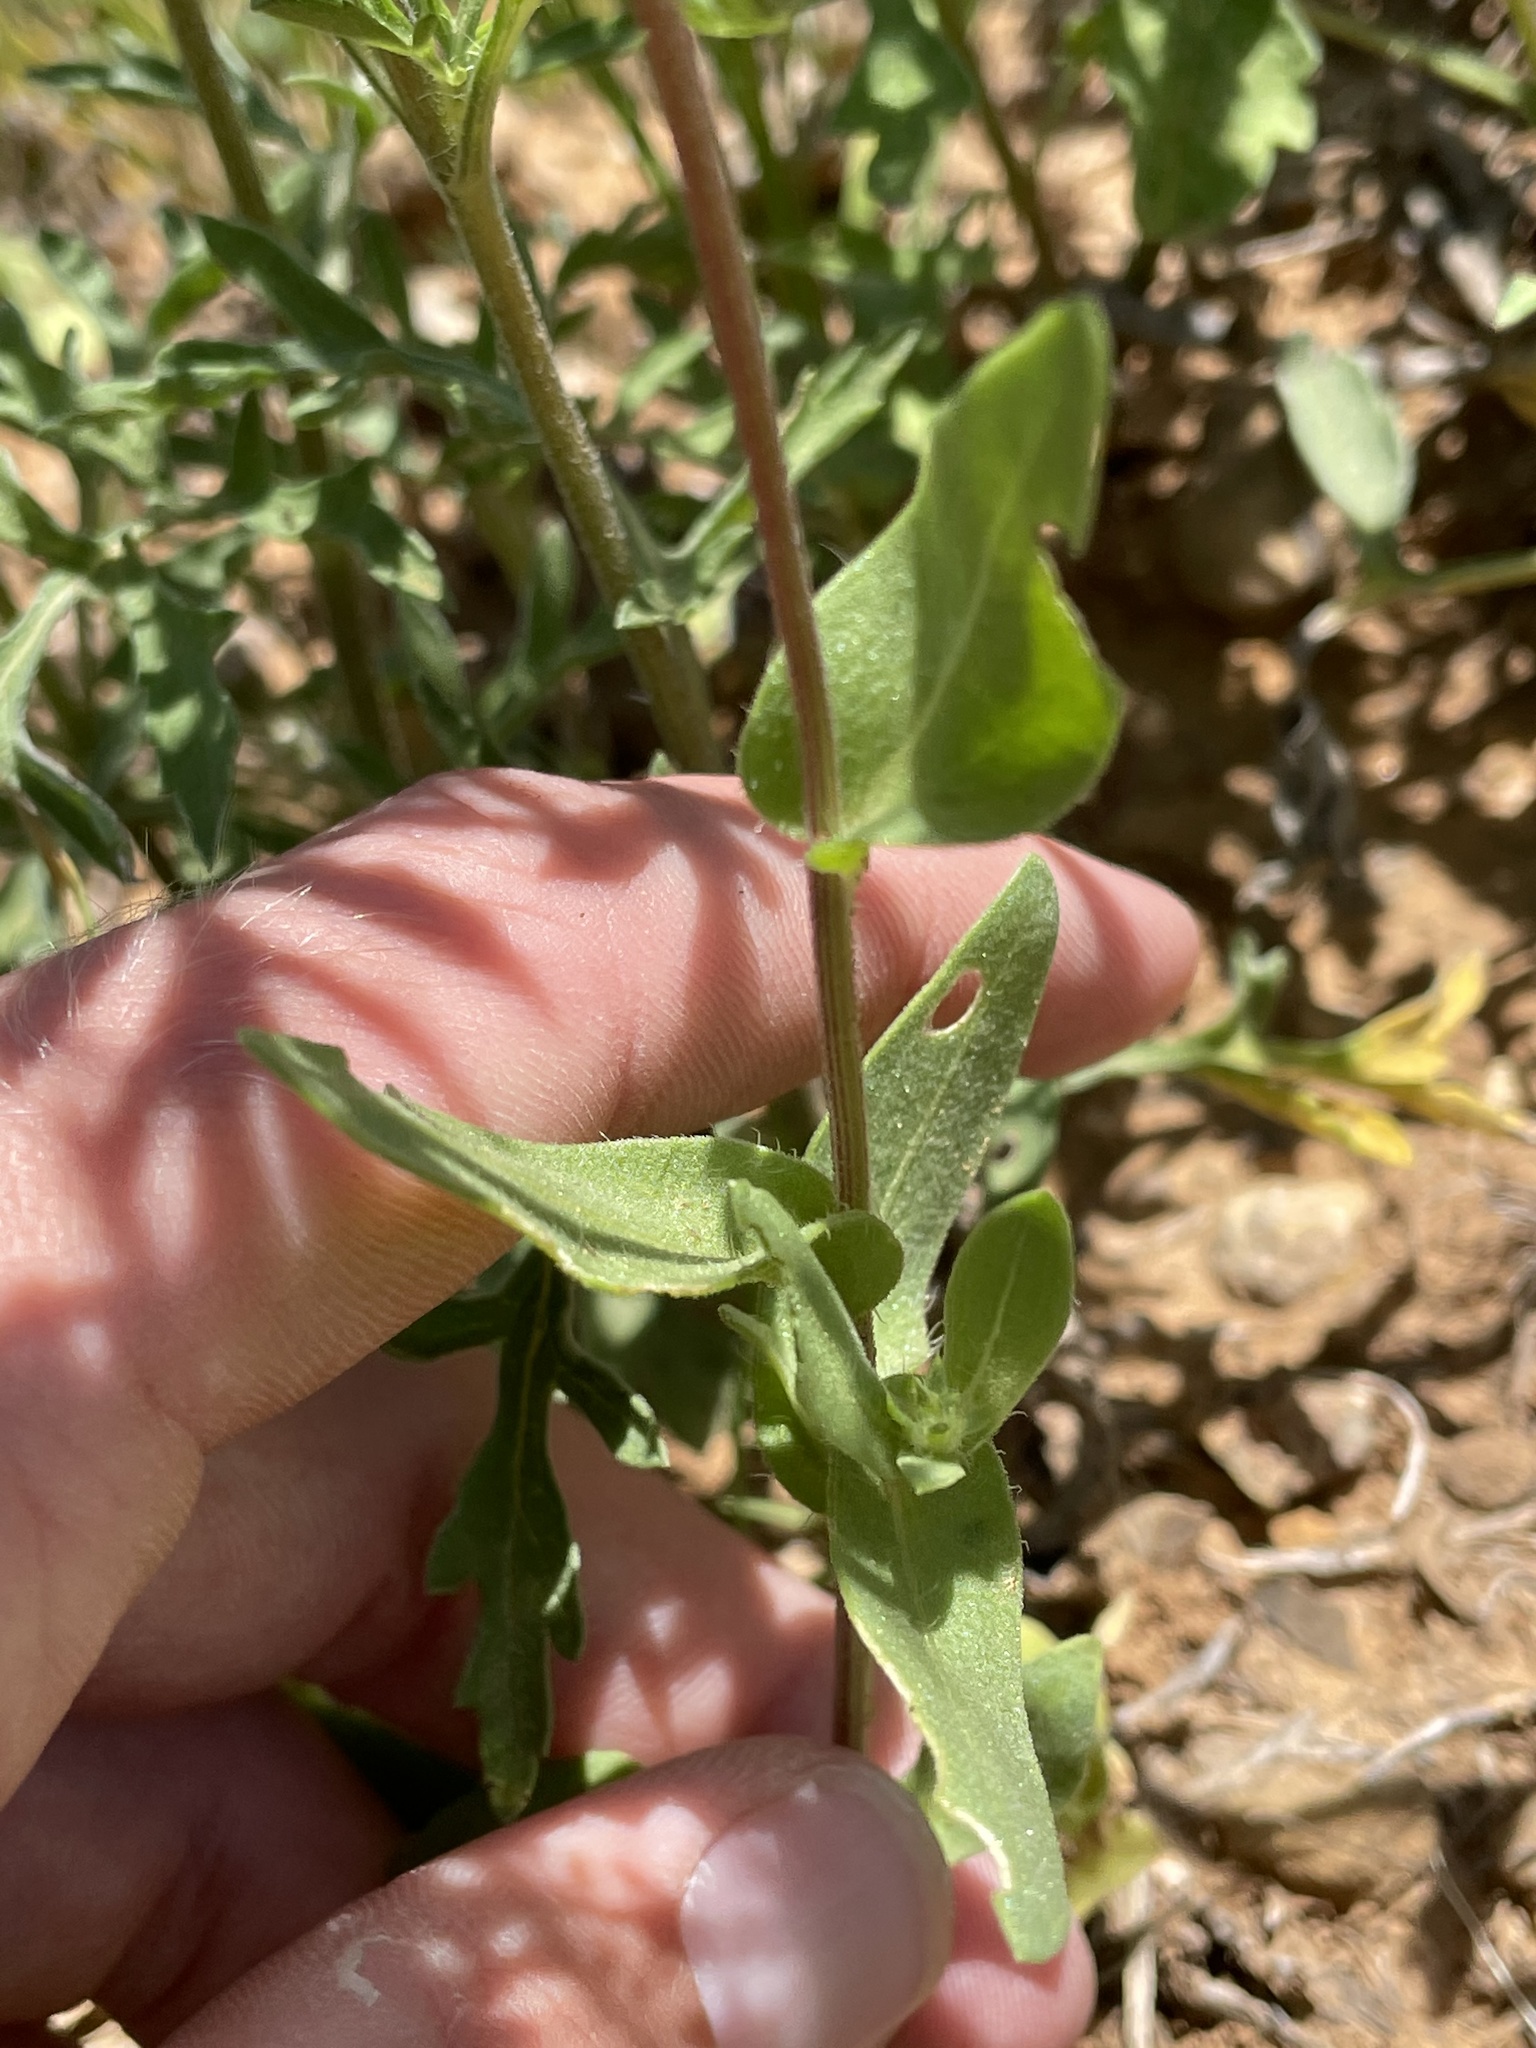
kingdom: Plantae
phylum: Tracheophyta
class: Magnoliopsida
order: Asterales
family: Asteraceae
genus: Gaillardia
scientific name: Gaillardia pulchella
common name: Firewheel
